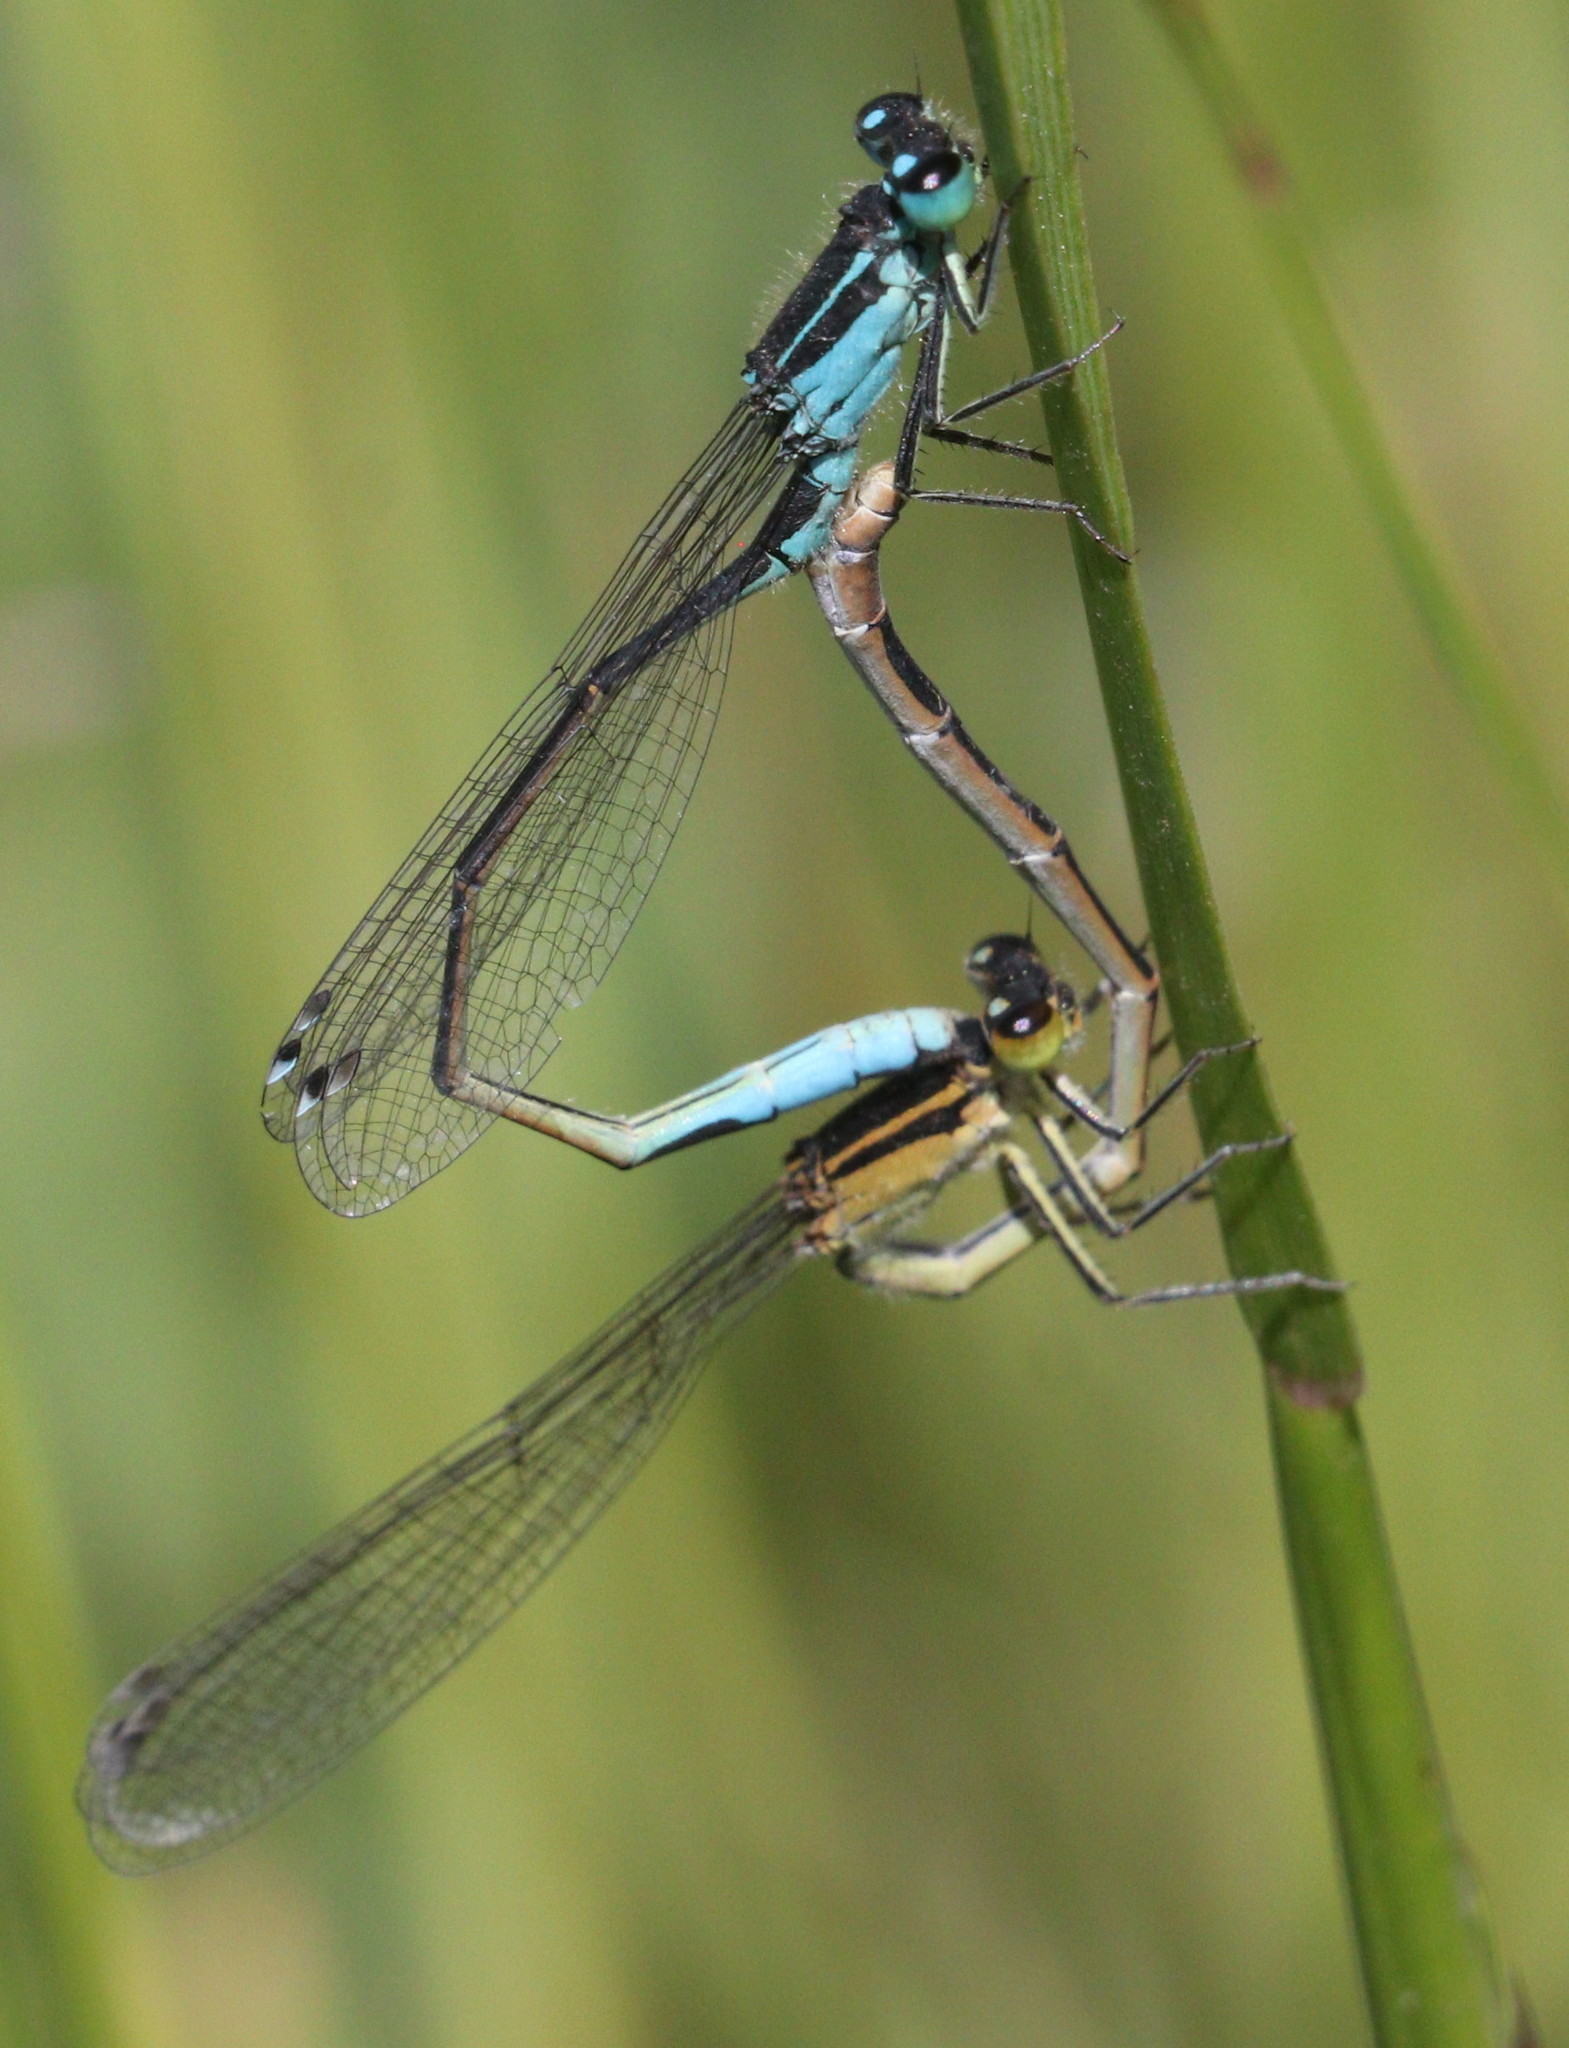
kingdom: Animalia
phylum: Arthropoda
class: Insecta
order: Odonata
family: Coenagrionidae
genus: Ischnura
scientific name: Ischnura elegans
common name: Blue-tailed damselfly
